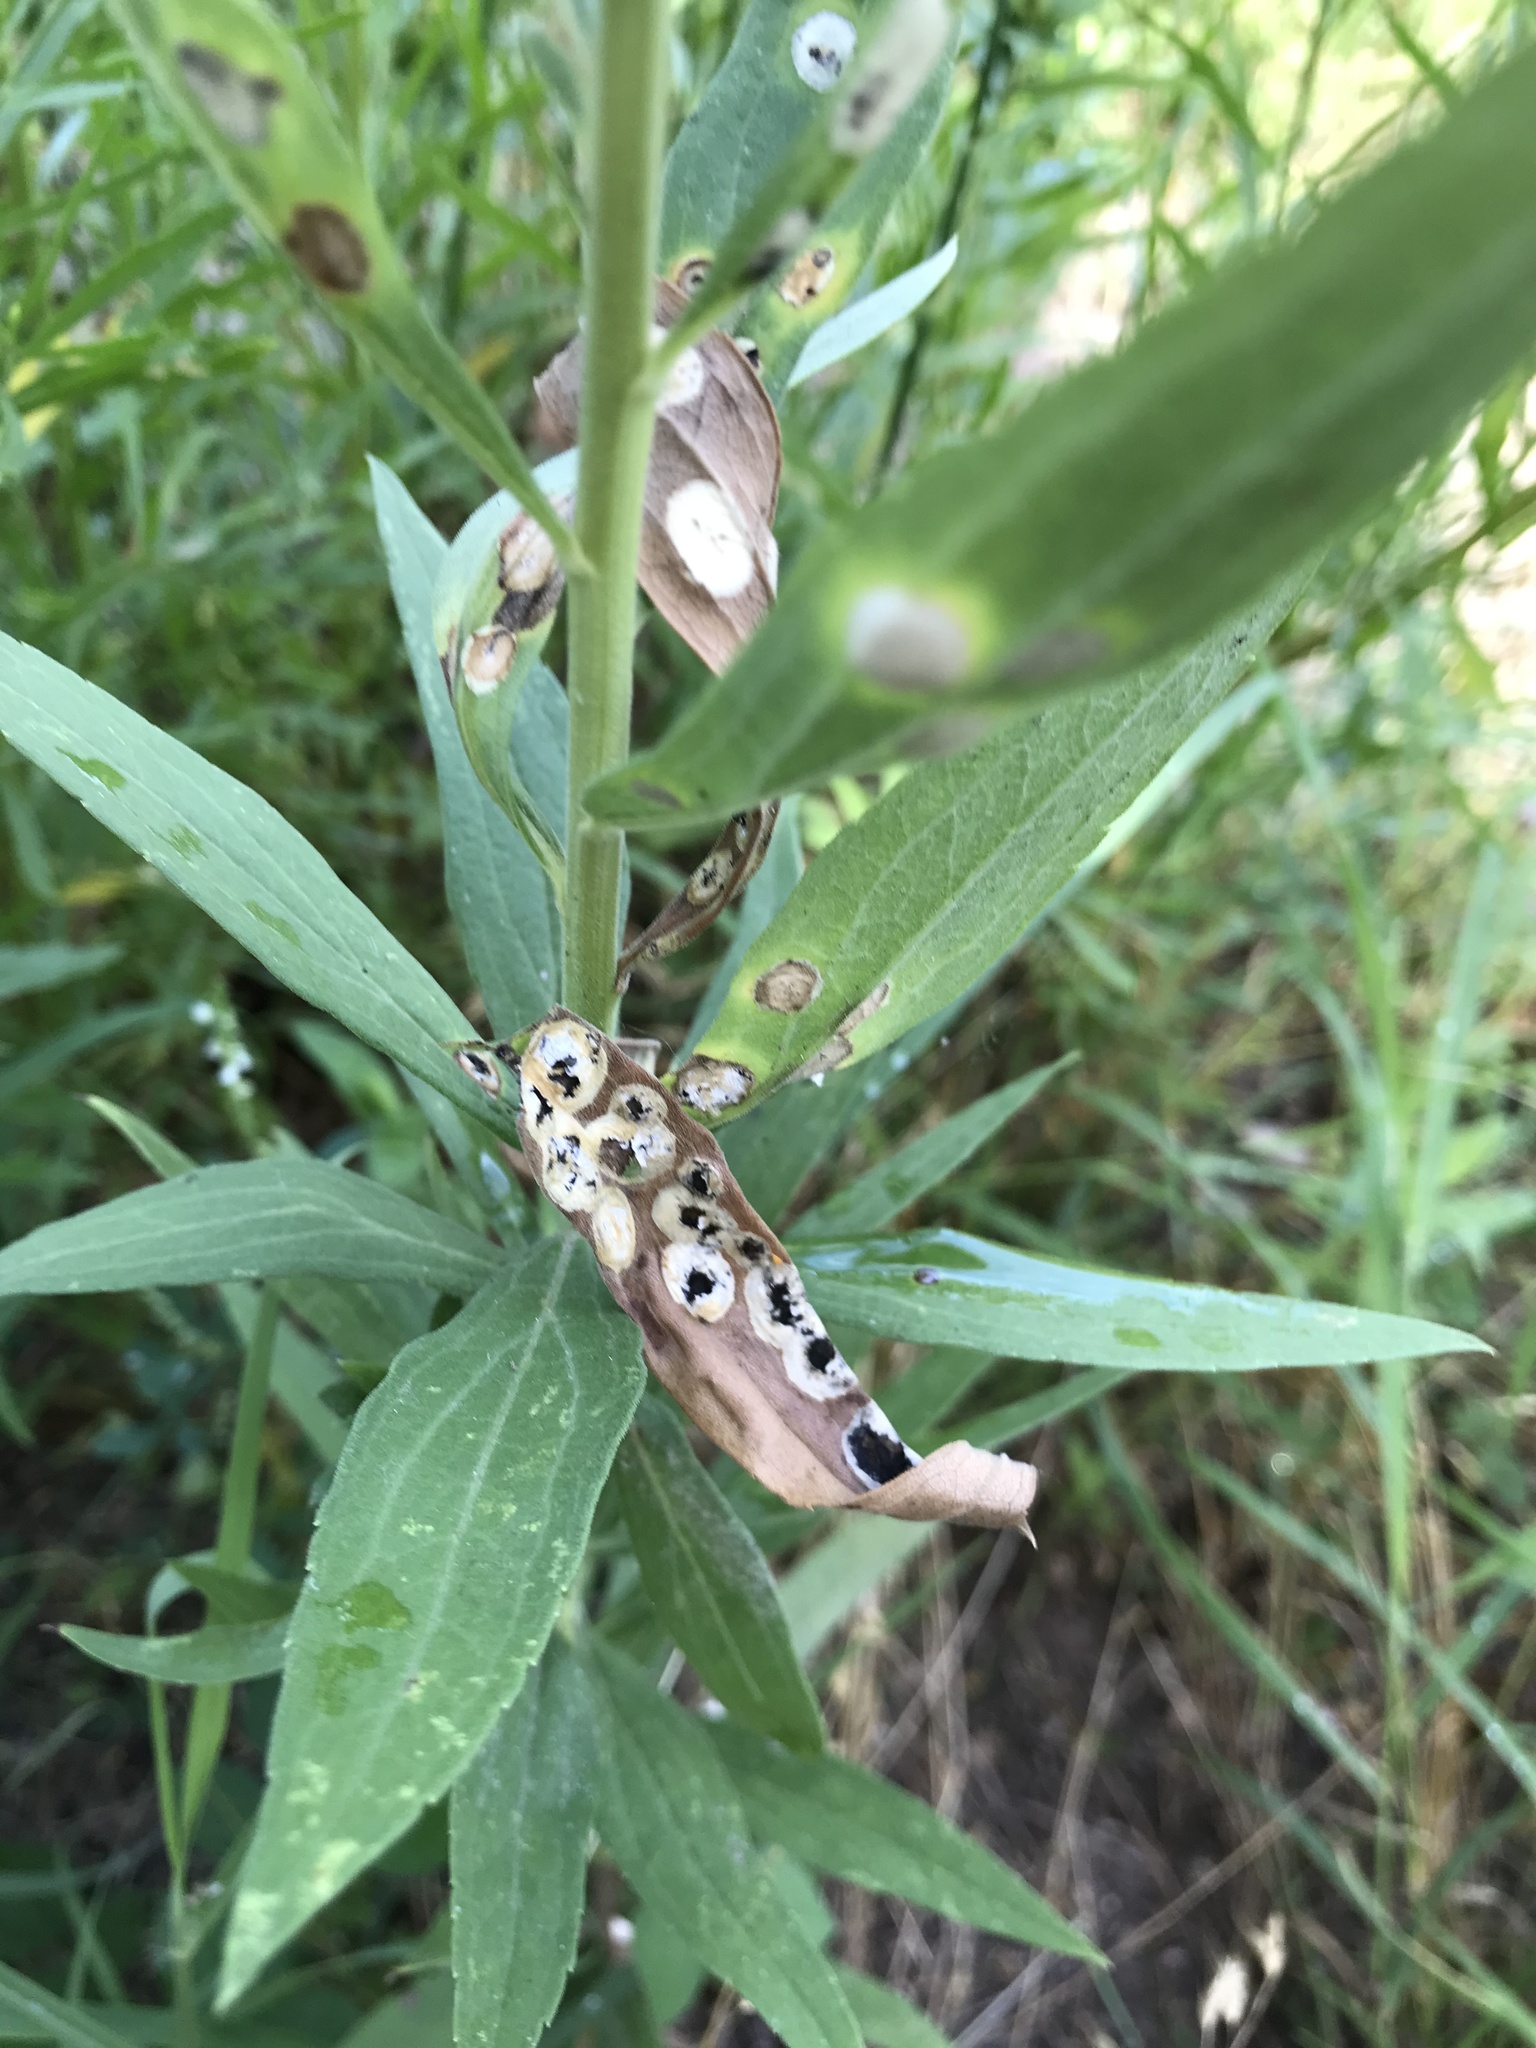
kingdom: Animalia
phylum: Arthropoda
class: Insecta
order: Diptera
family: Cecidomyiidae
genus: Asteromyia
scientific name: Asteromyia carbonifera
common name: Carbonifera goldenrod gall midge
